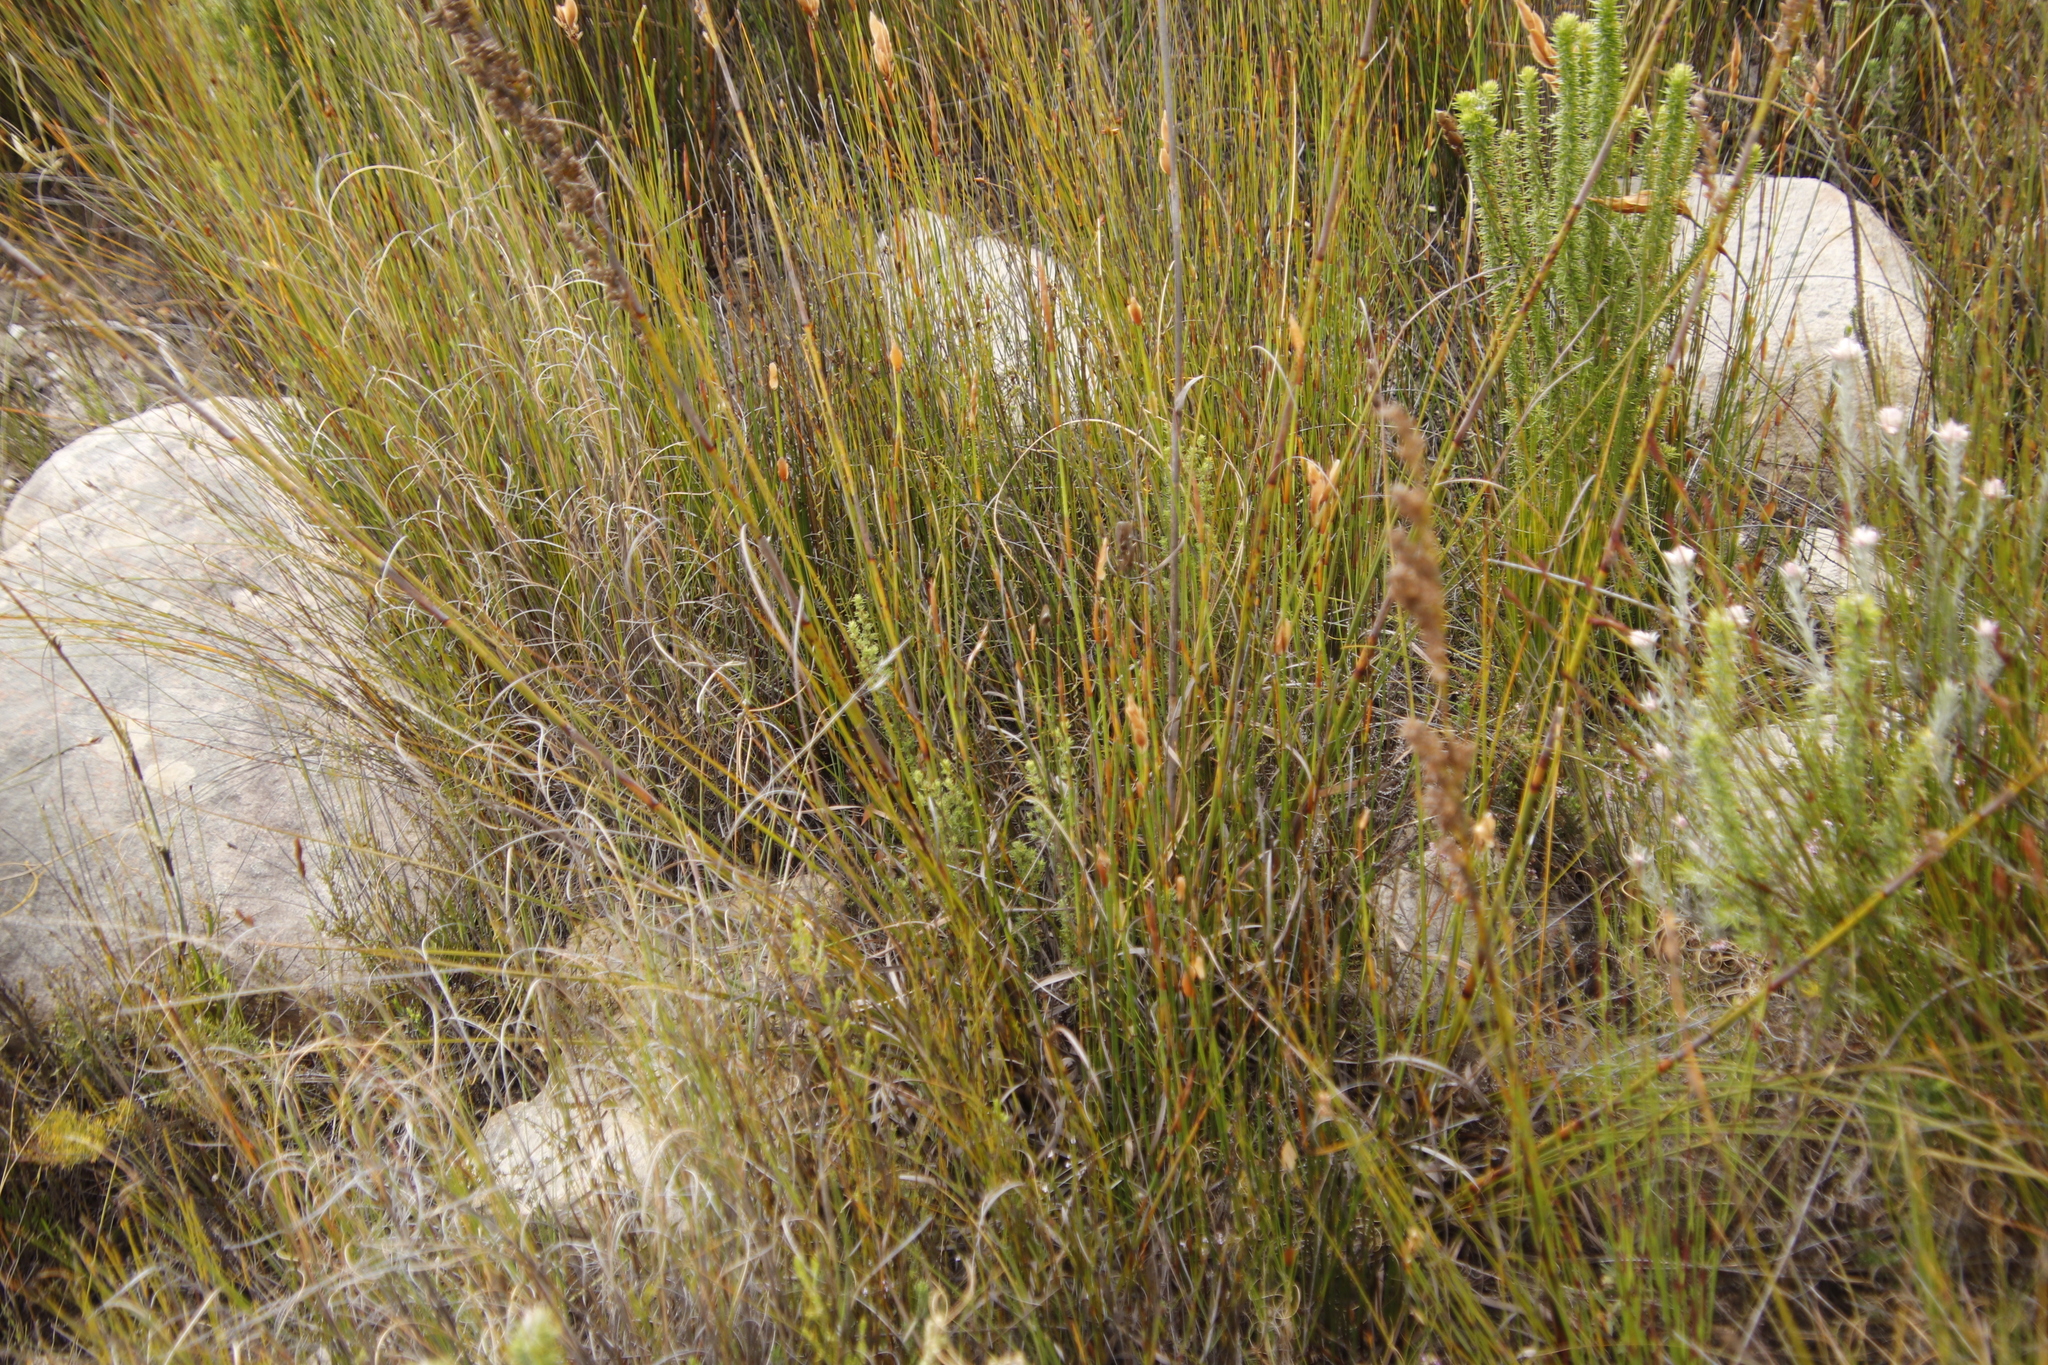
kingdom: Plantae
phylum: Tracheophyta
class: Liliopsida
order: Poales
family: Cyperaceae
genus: Tetraria
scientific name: Tetraria involucrata
